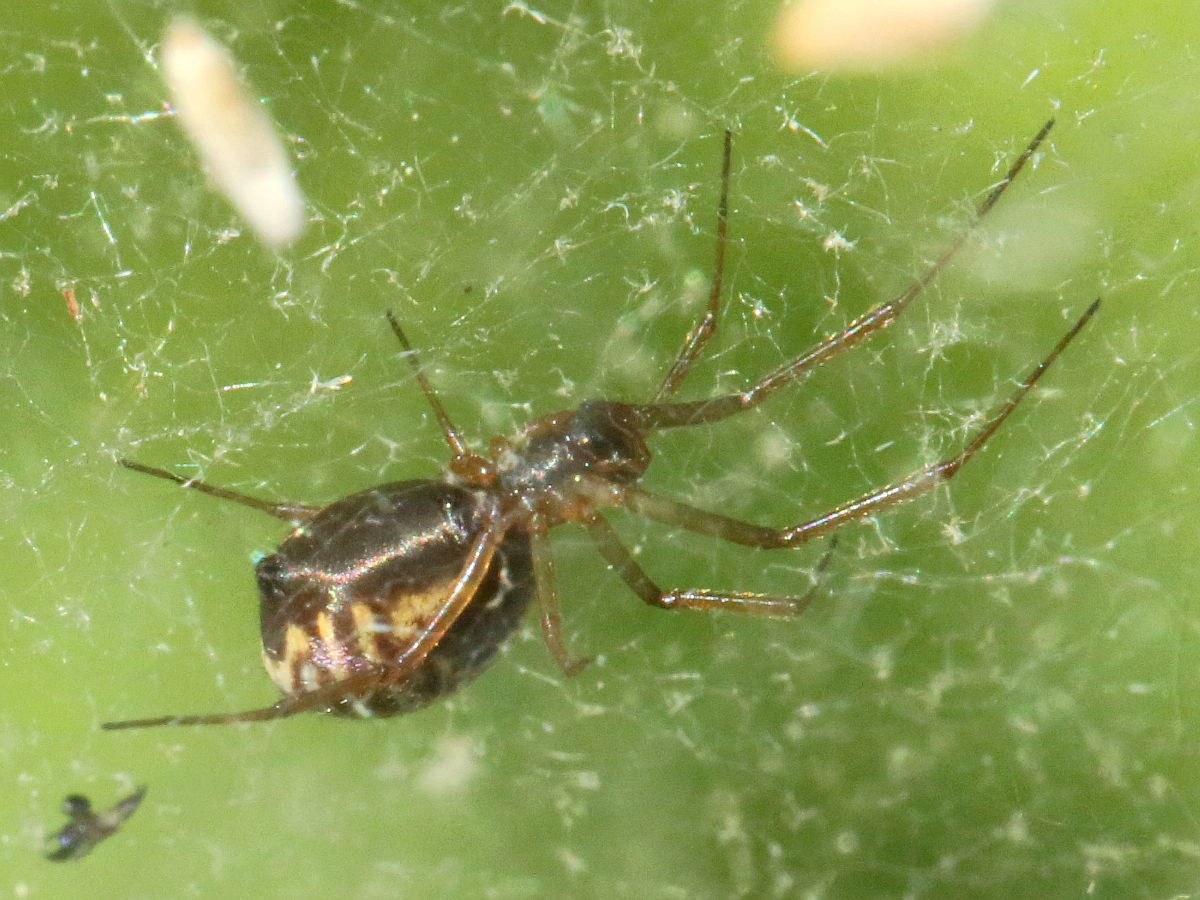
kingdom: Animalia
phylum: Arthropoda
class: Arachnida
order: Araneae
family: Linyphiidae
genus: Frontinella
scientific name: Frontinella pyramitela
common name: Bowl-and-doily spider
